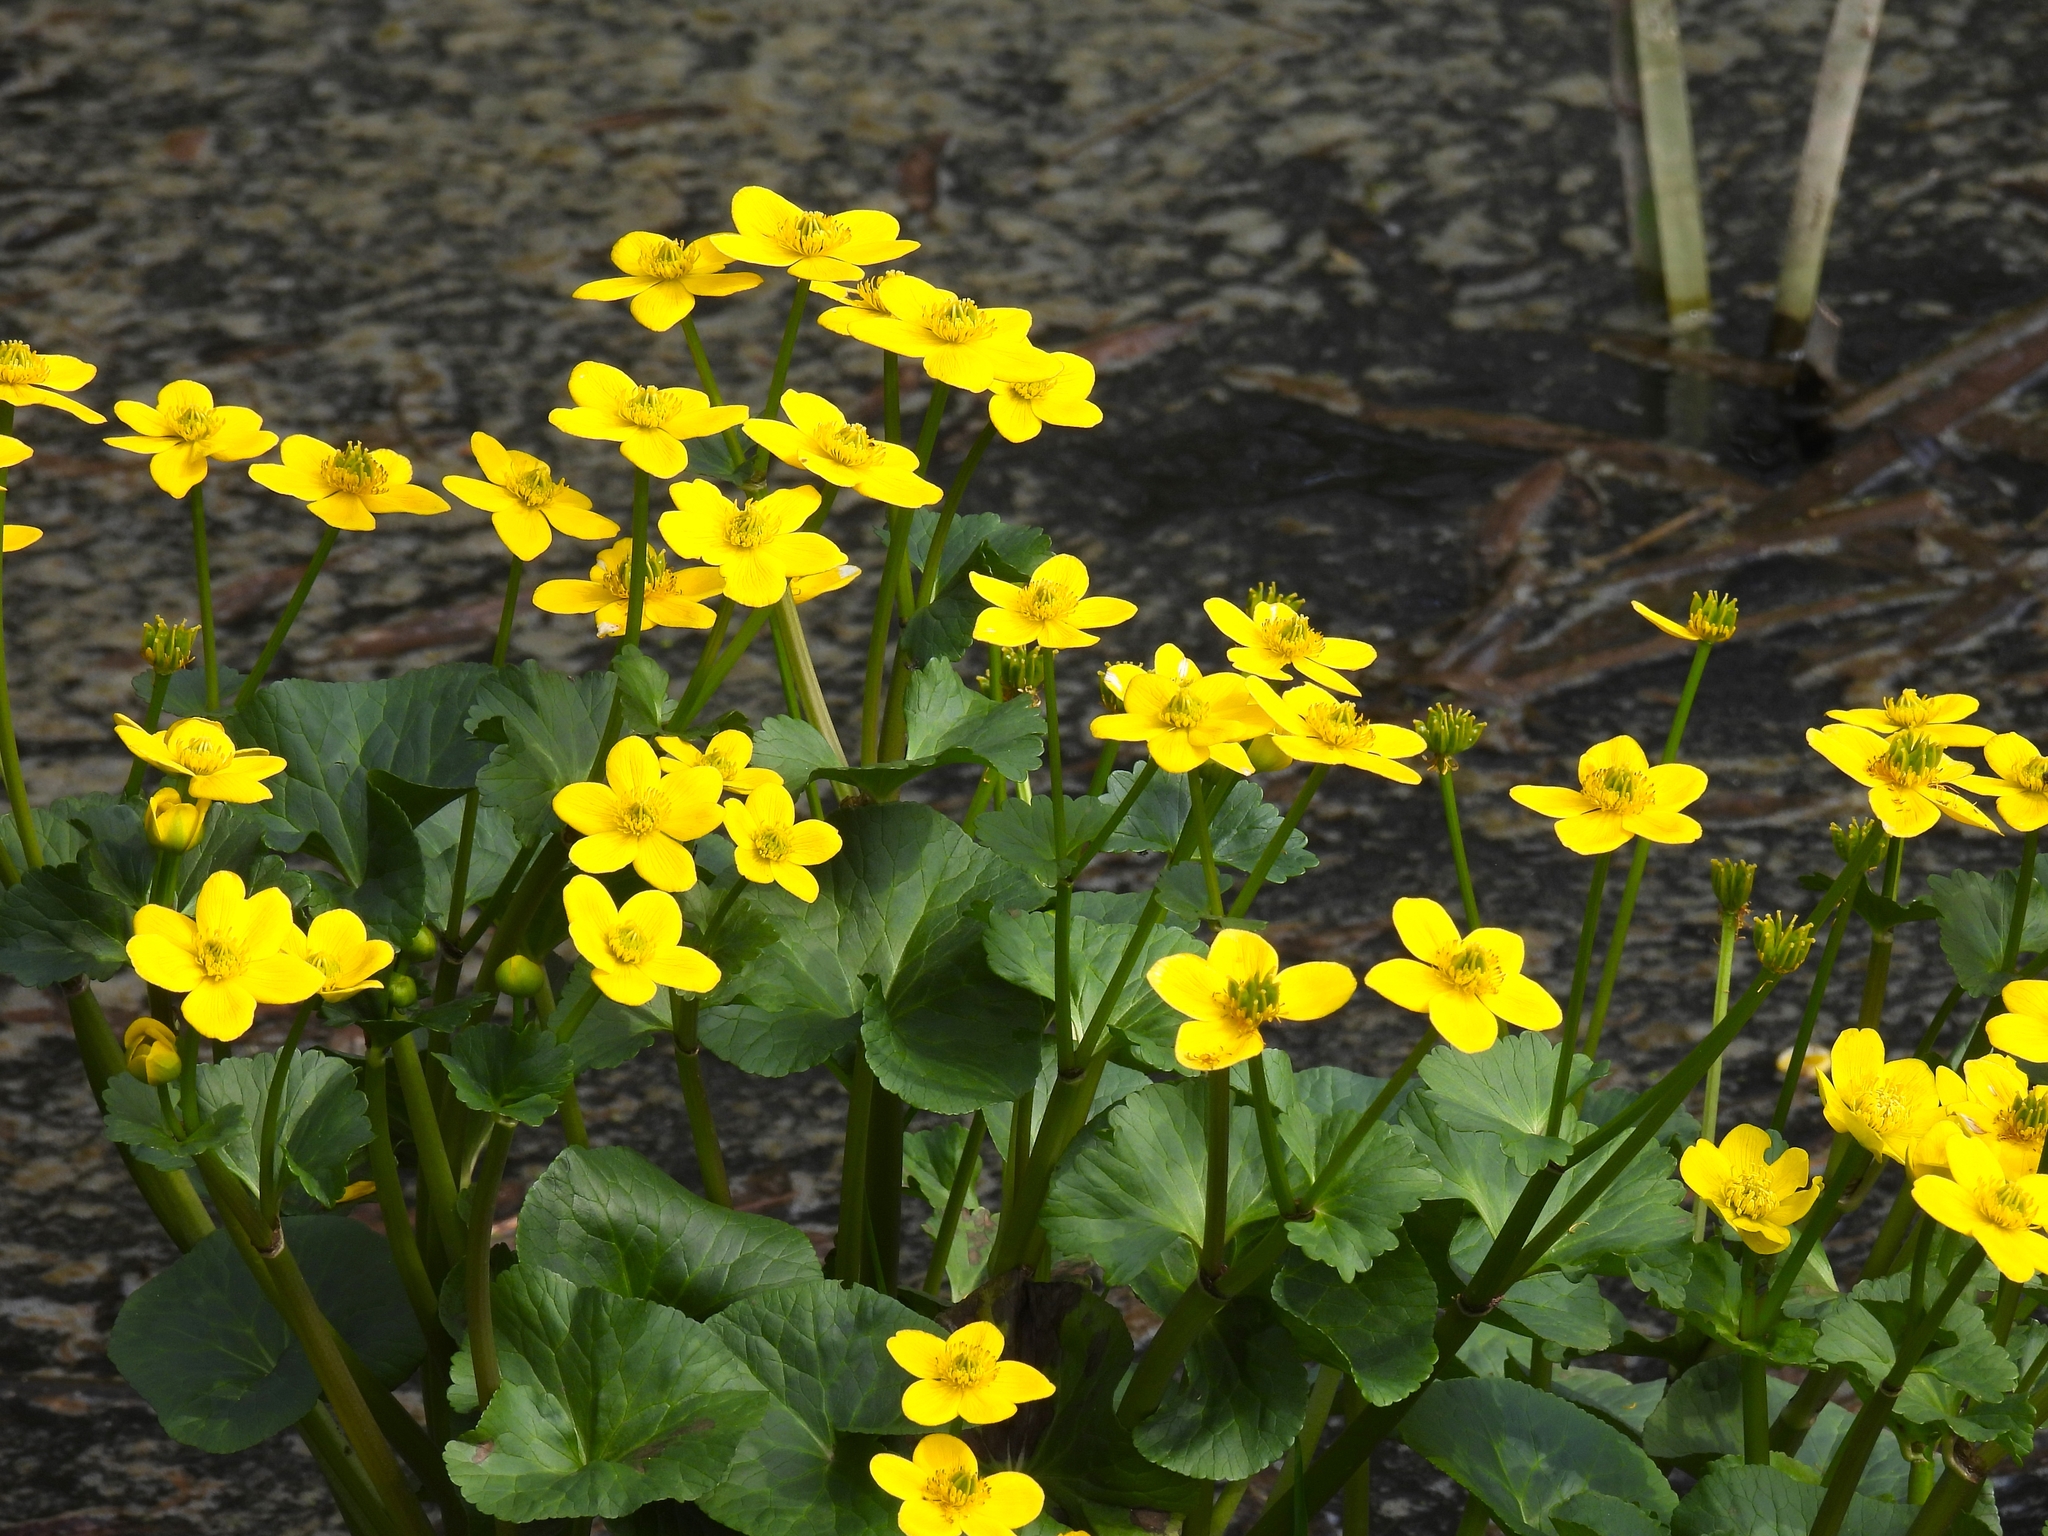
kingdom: Plantae
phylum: Tracheophyta
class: Magnoliopsida
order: Ranunculales
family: Ranunculaceae
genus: Caltha
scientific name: Caltha palustris
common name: Marsh marigold
